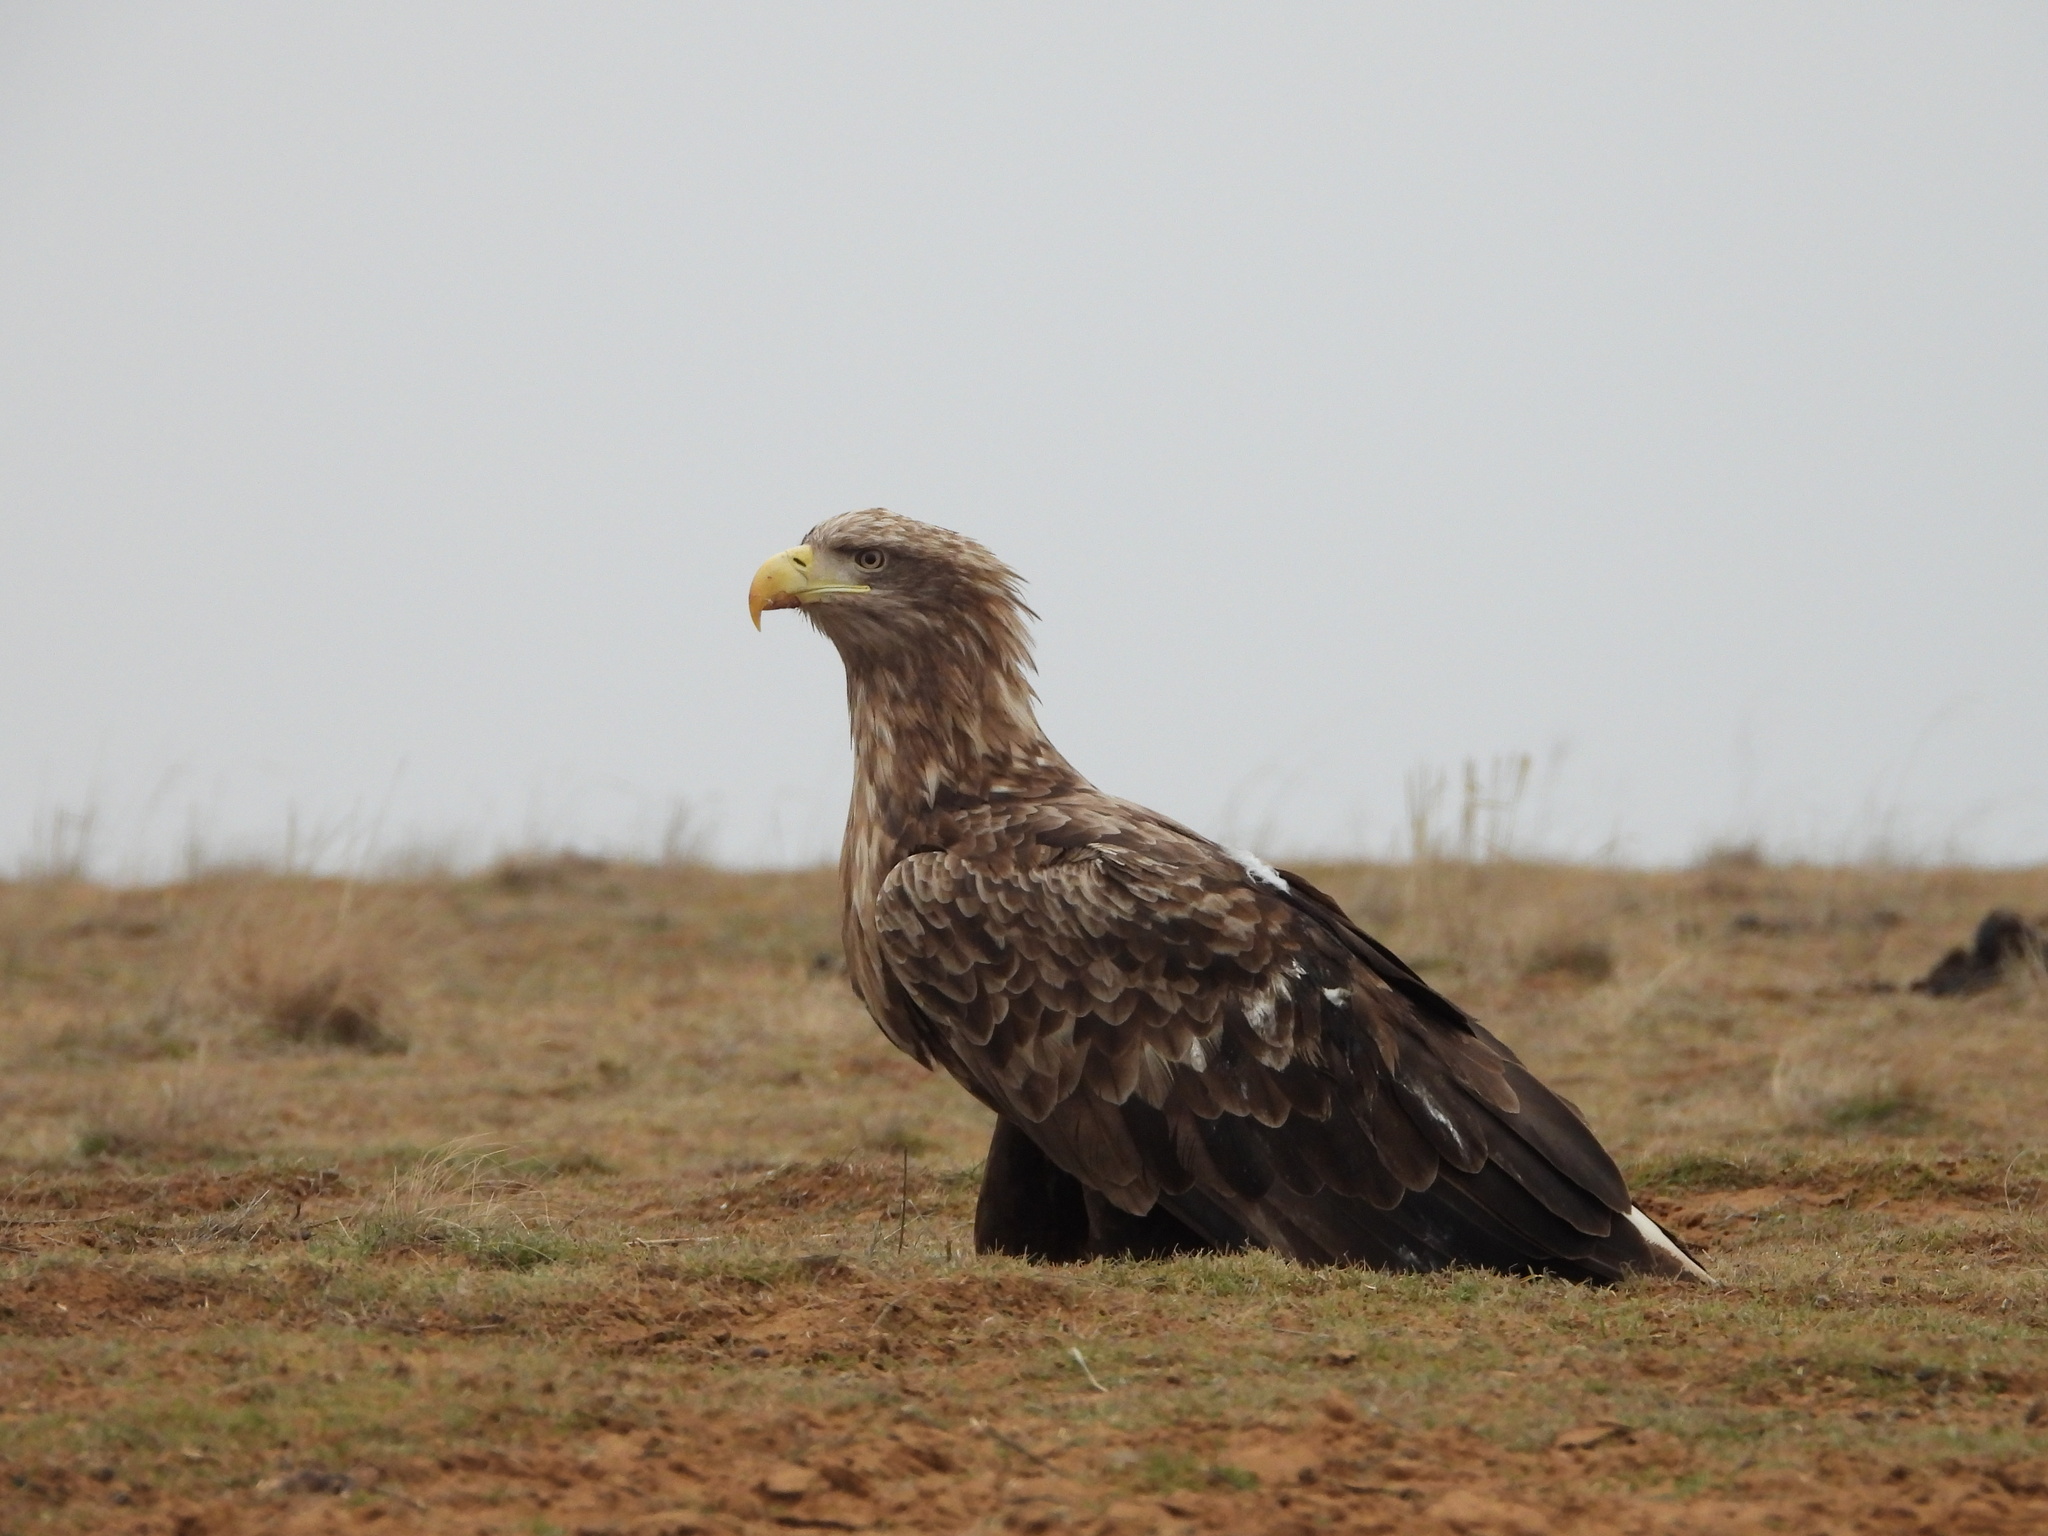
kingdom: Animalia
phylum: Chordata
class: Aves
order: Accipitriformes
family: Accipitridae
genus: Haliaeetus
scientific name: Haliaeetus albicilla
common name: White-tailed eagle
